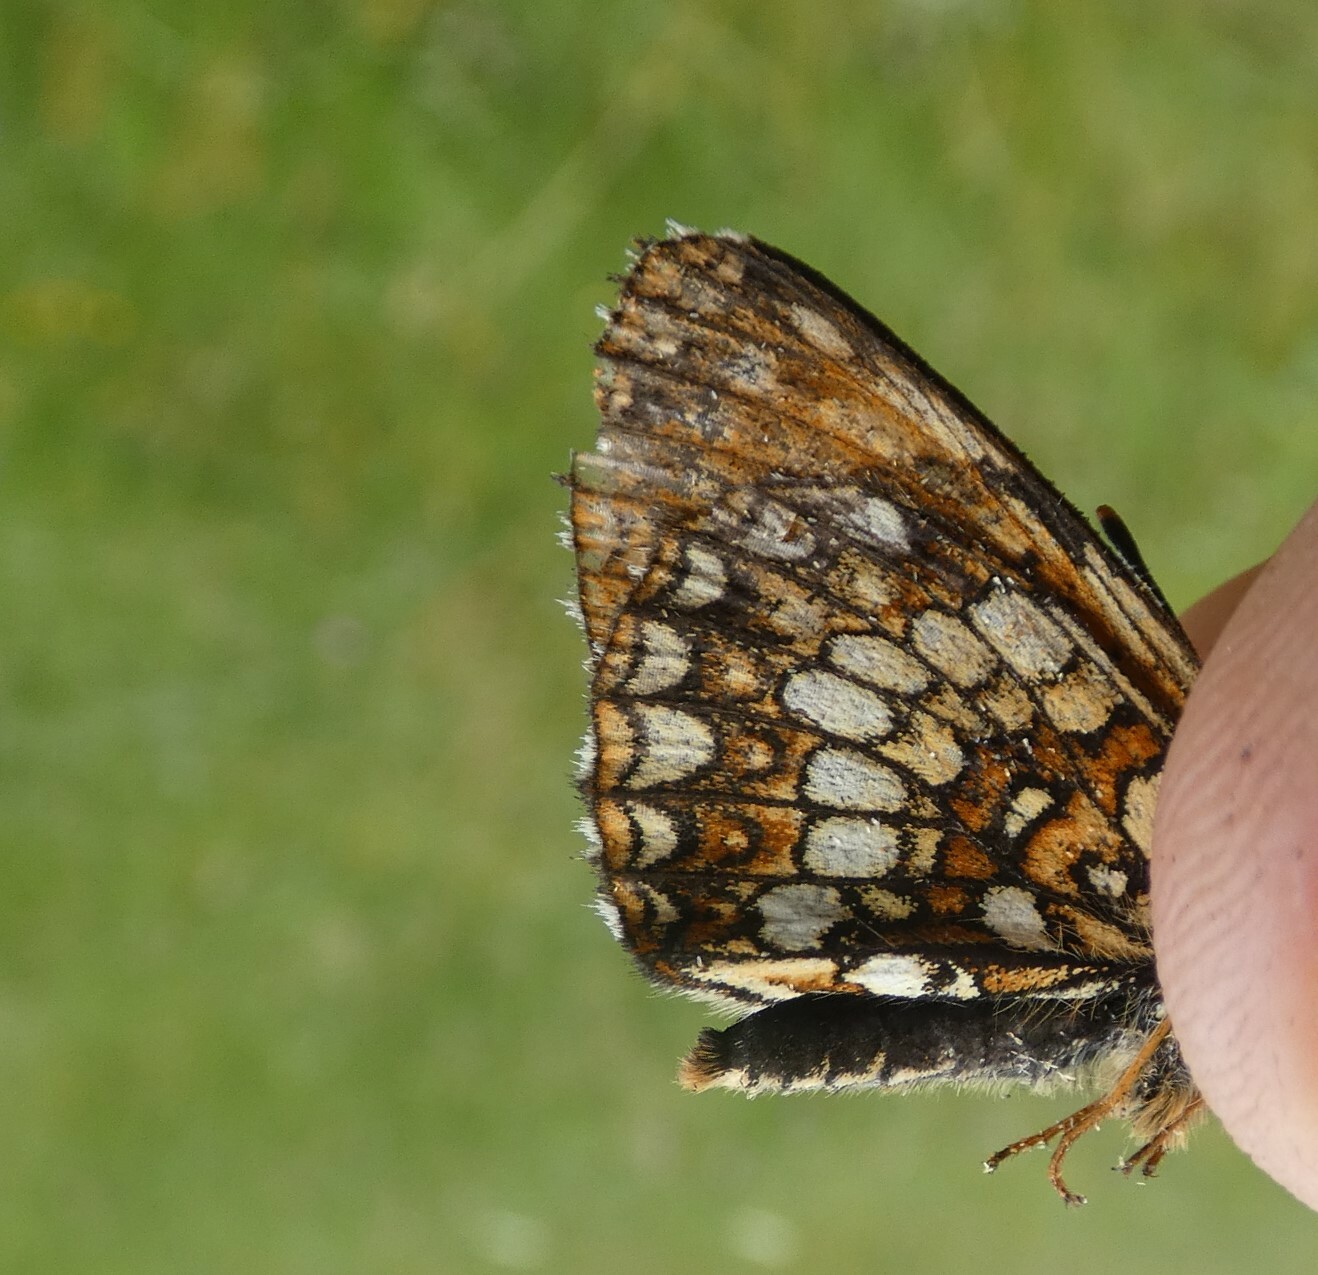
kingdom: Animalia
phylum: Arthropoda
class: Insecta
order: Lepidoptera
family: Nymphalidae
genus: Melitaea
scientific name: Melitaea diamina
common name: False heath fritillary
